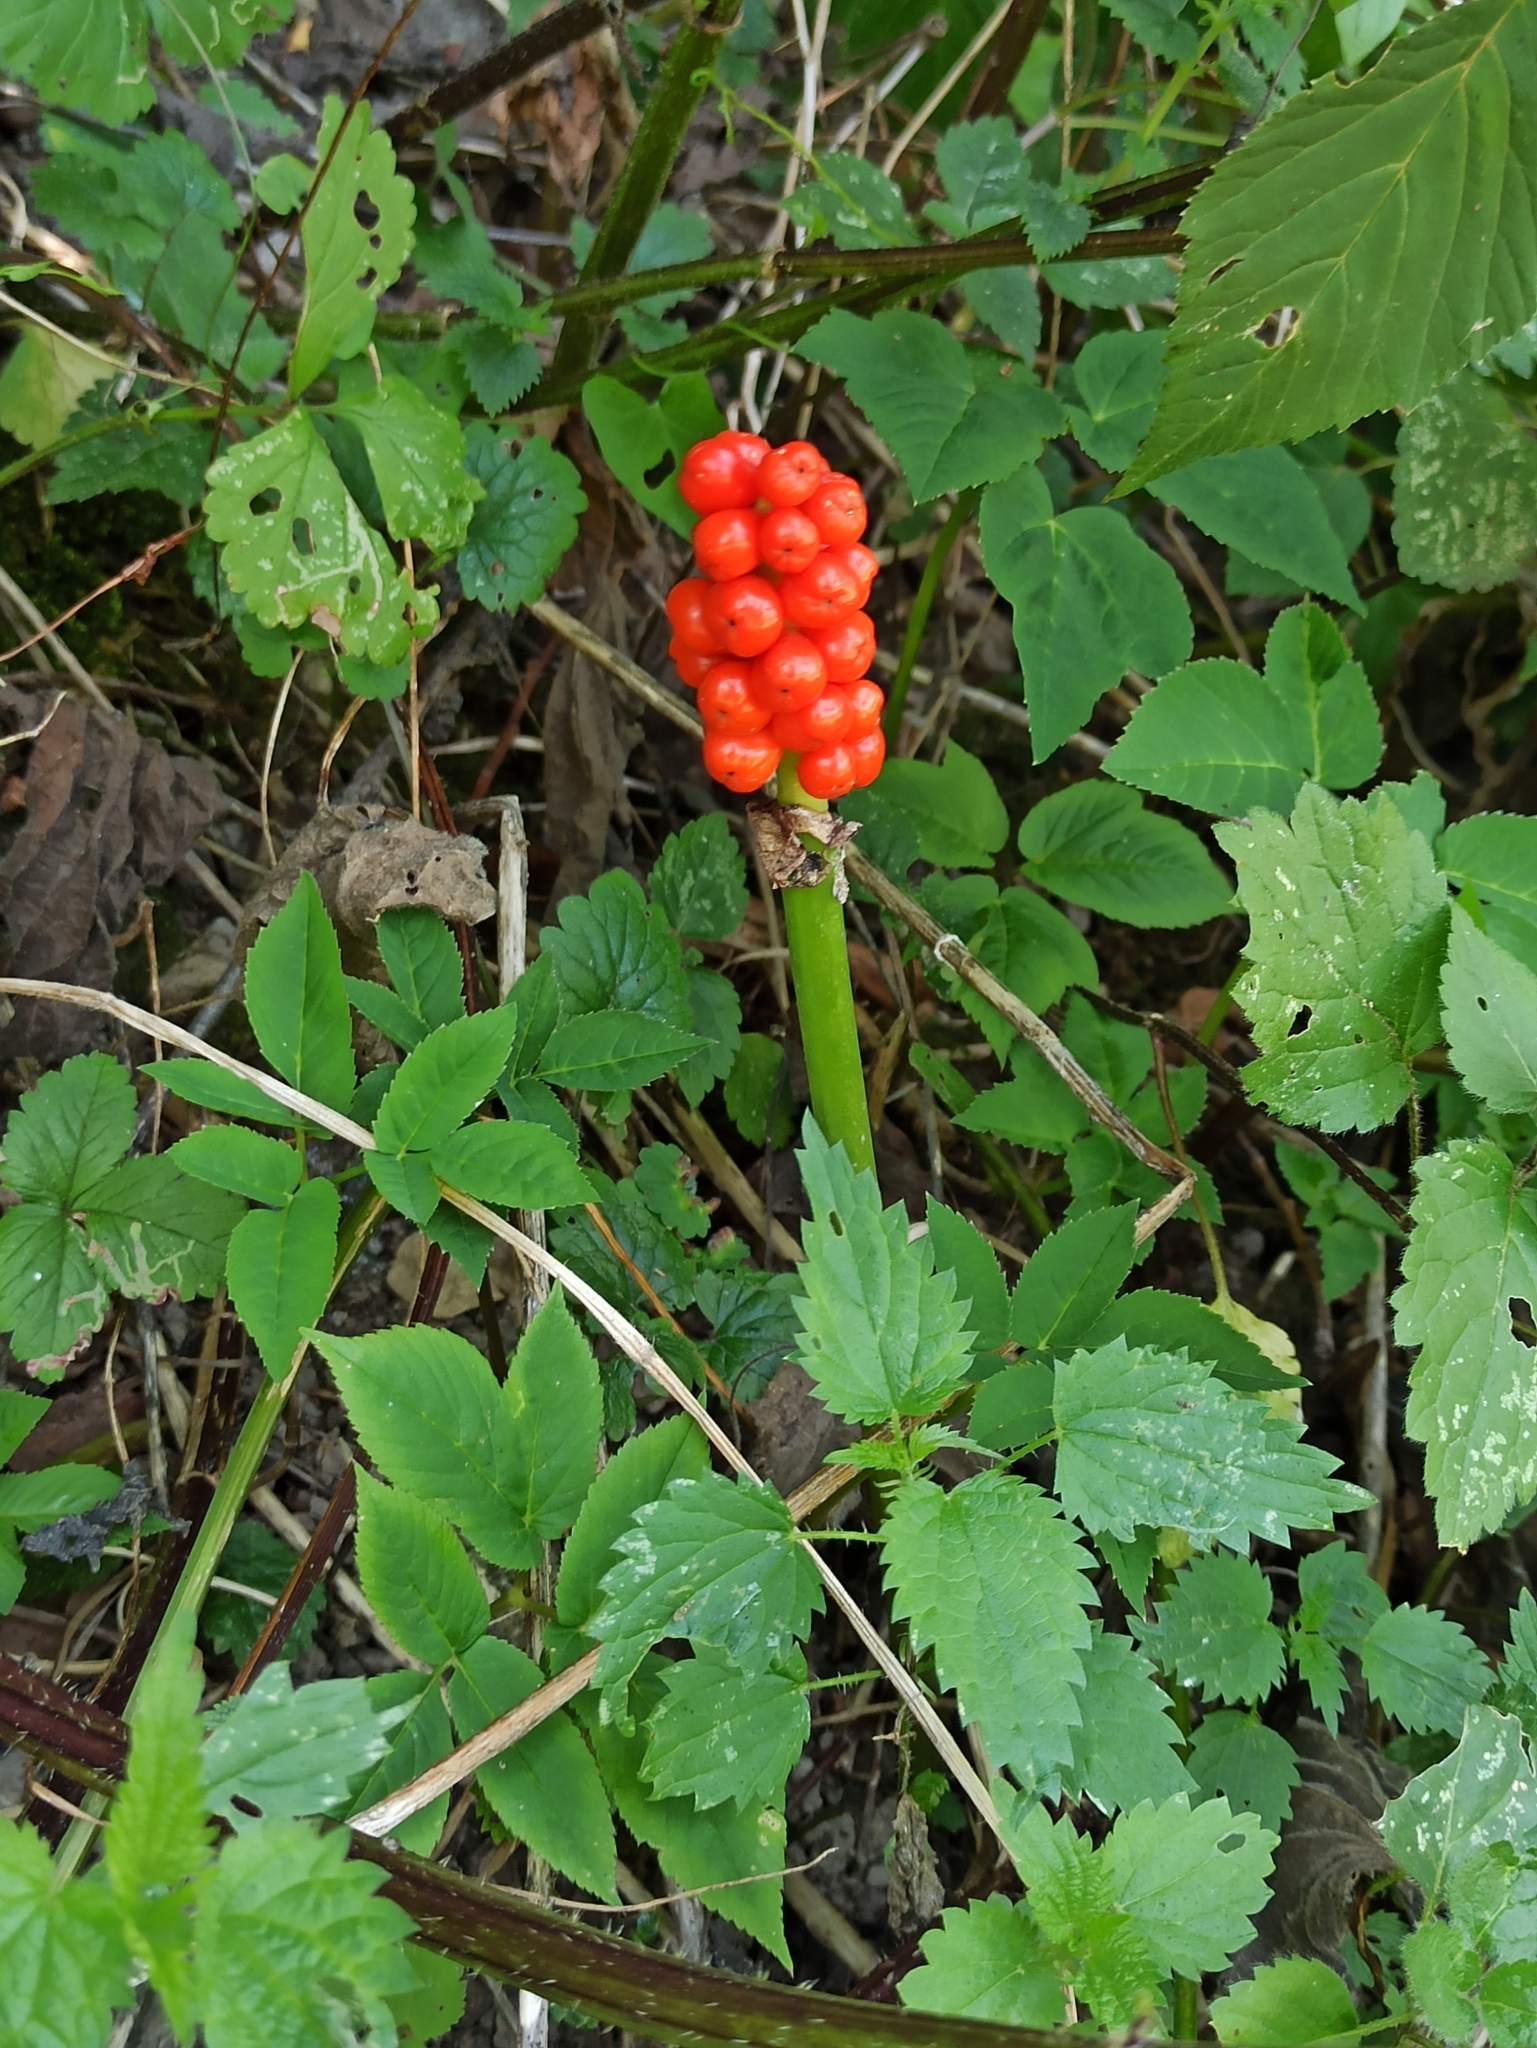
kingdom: Plantae
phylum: Tracheophyta
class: Liliopsida
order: Alismatales
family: Araceae
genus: Arum
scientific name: Arum maculatum
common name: Lords-and-ladies
